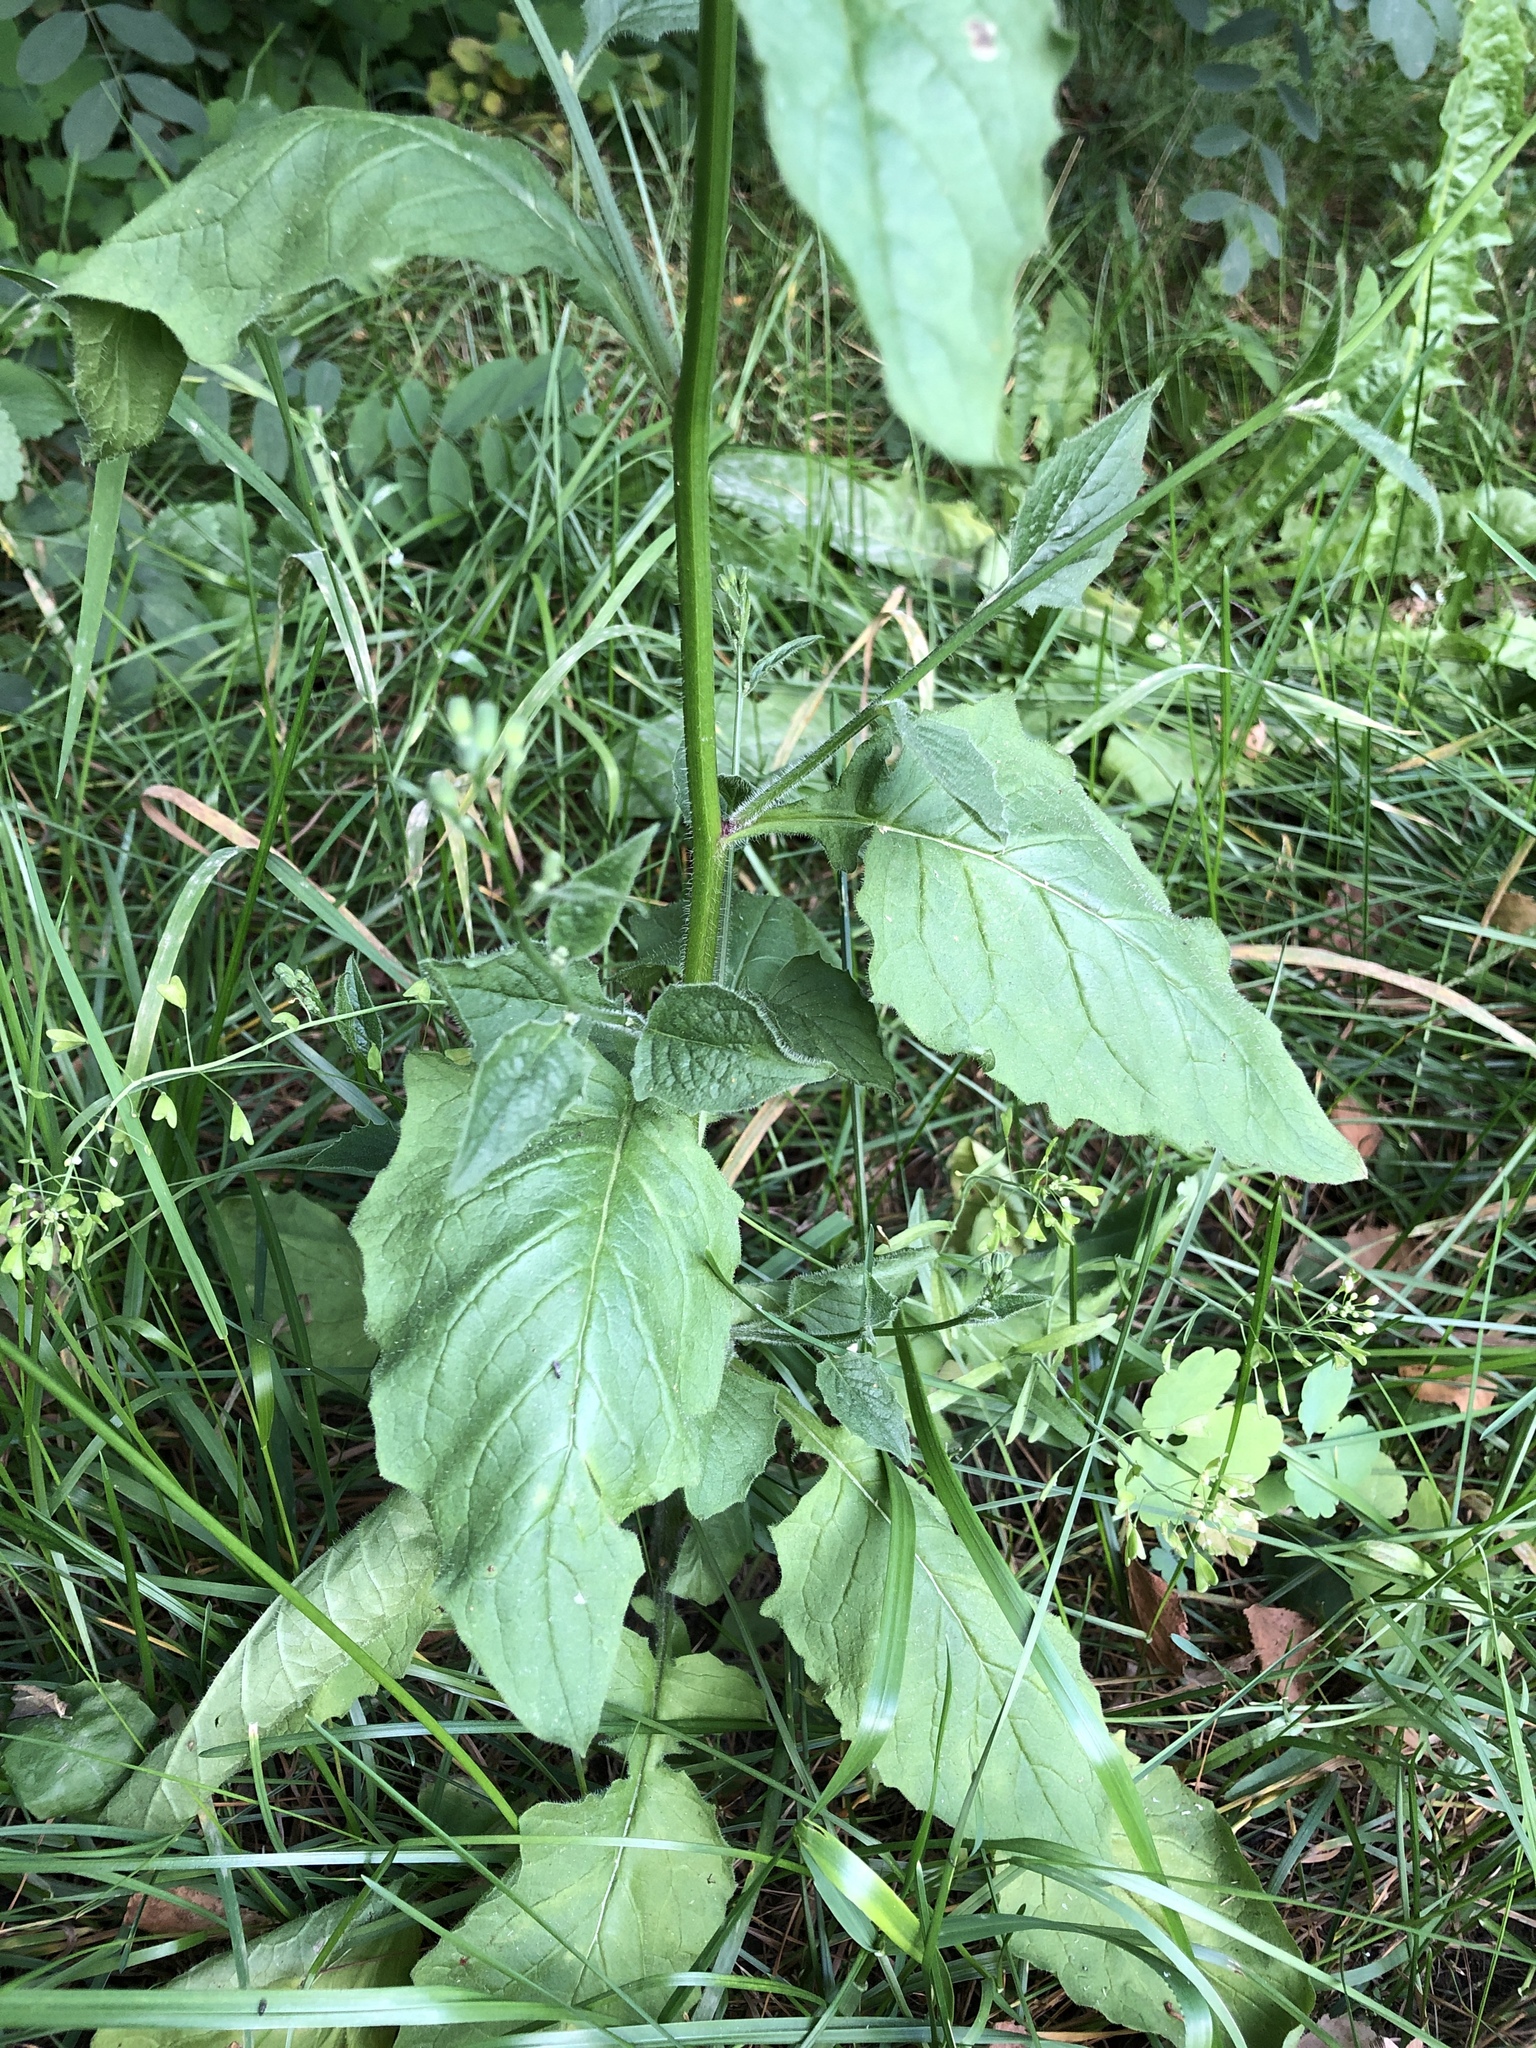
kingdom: Plantae
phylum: Tracheophyta
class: Magnoliopsida
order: Asterales
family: Asteraceae
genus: Lapsana
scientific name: Lapsana communis
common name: Nipplewort
